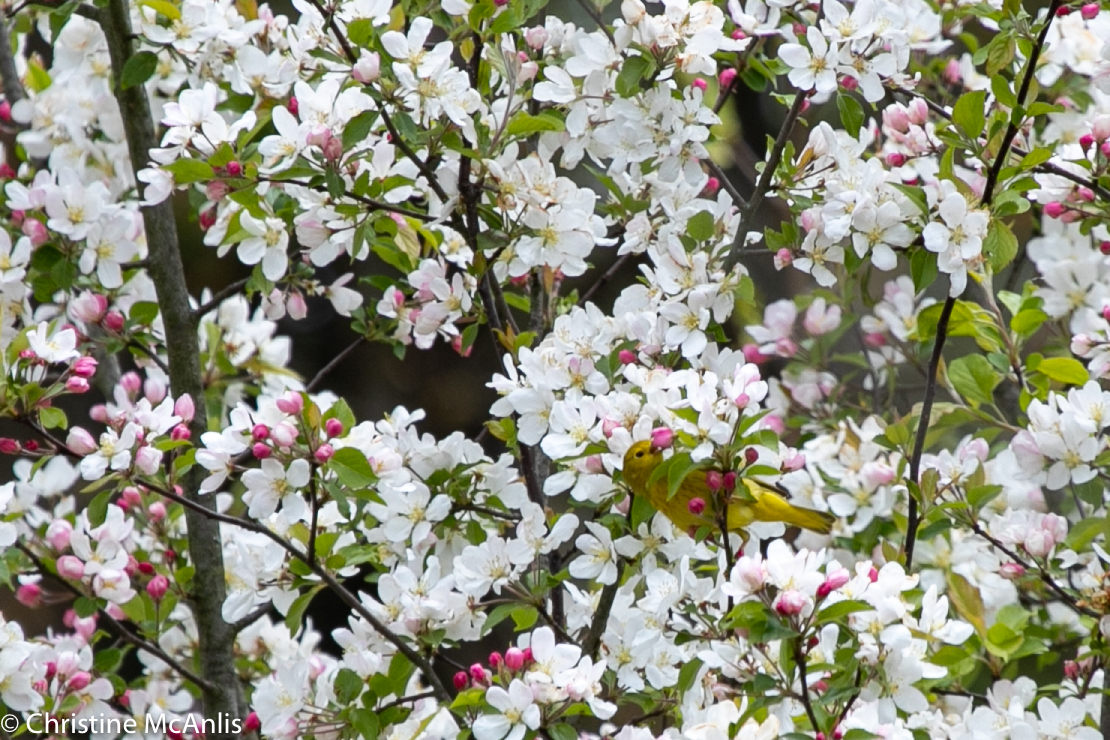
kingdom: Animalia
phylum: Chordata
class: Aves
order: Passeriformes
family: Parulidae
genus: Setophaga
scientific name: Setophaga petechia
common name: Yellow warbler
